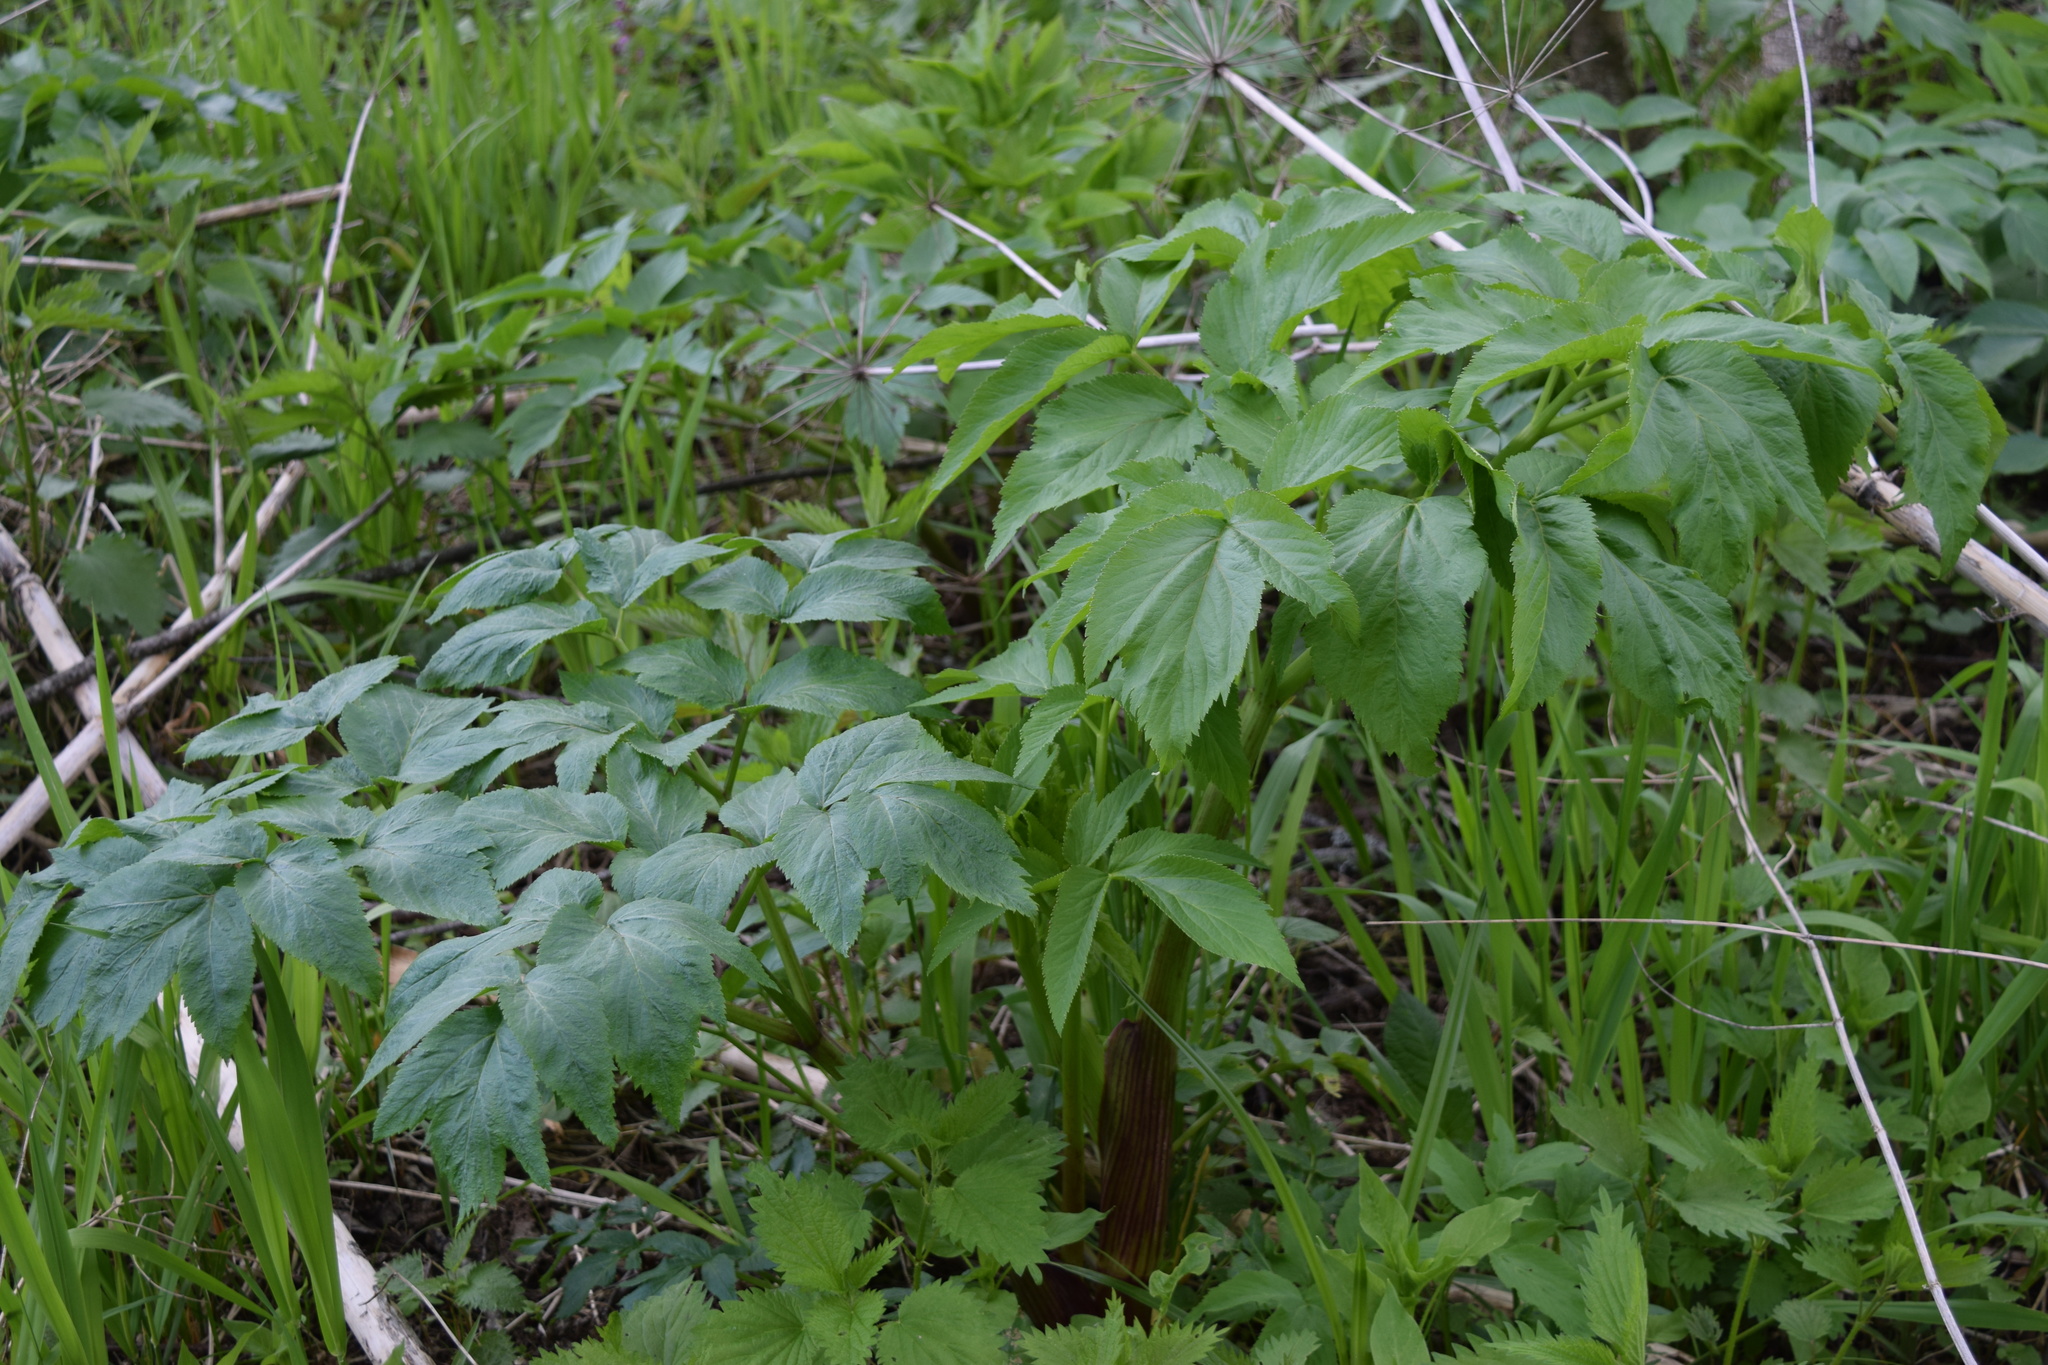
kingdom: Plantae
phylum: Tracheophyta
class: Magnoliopsida
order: Apiales
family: Apiaceae
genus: Angelica
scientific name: Angelica archangelica
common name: Garden angelica
